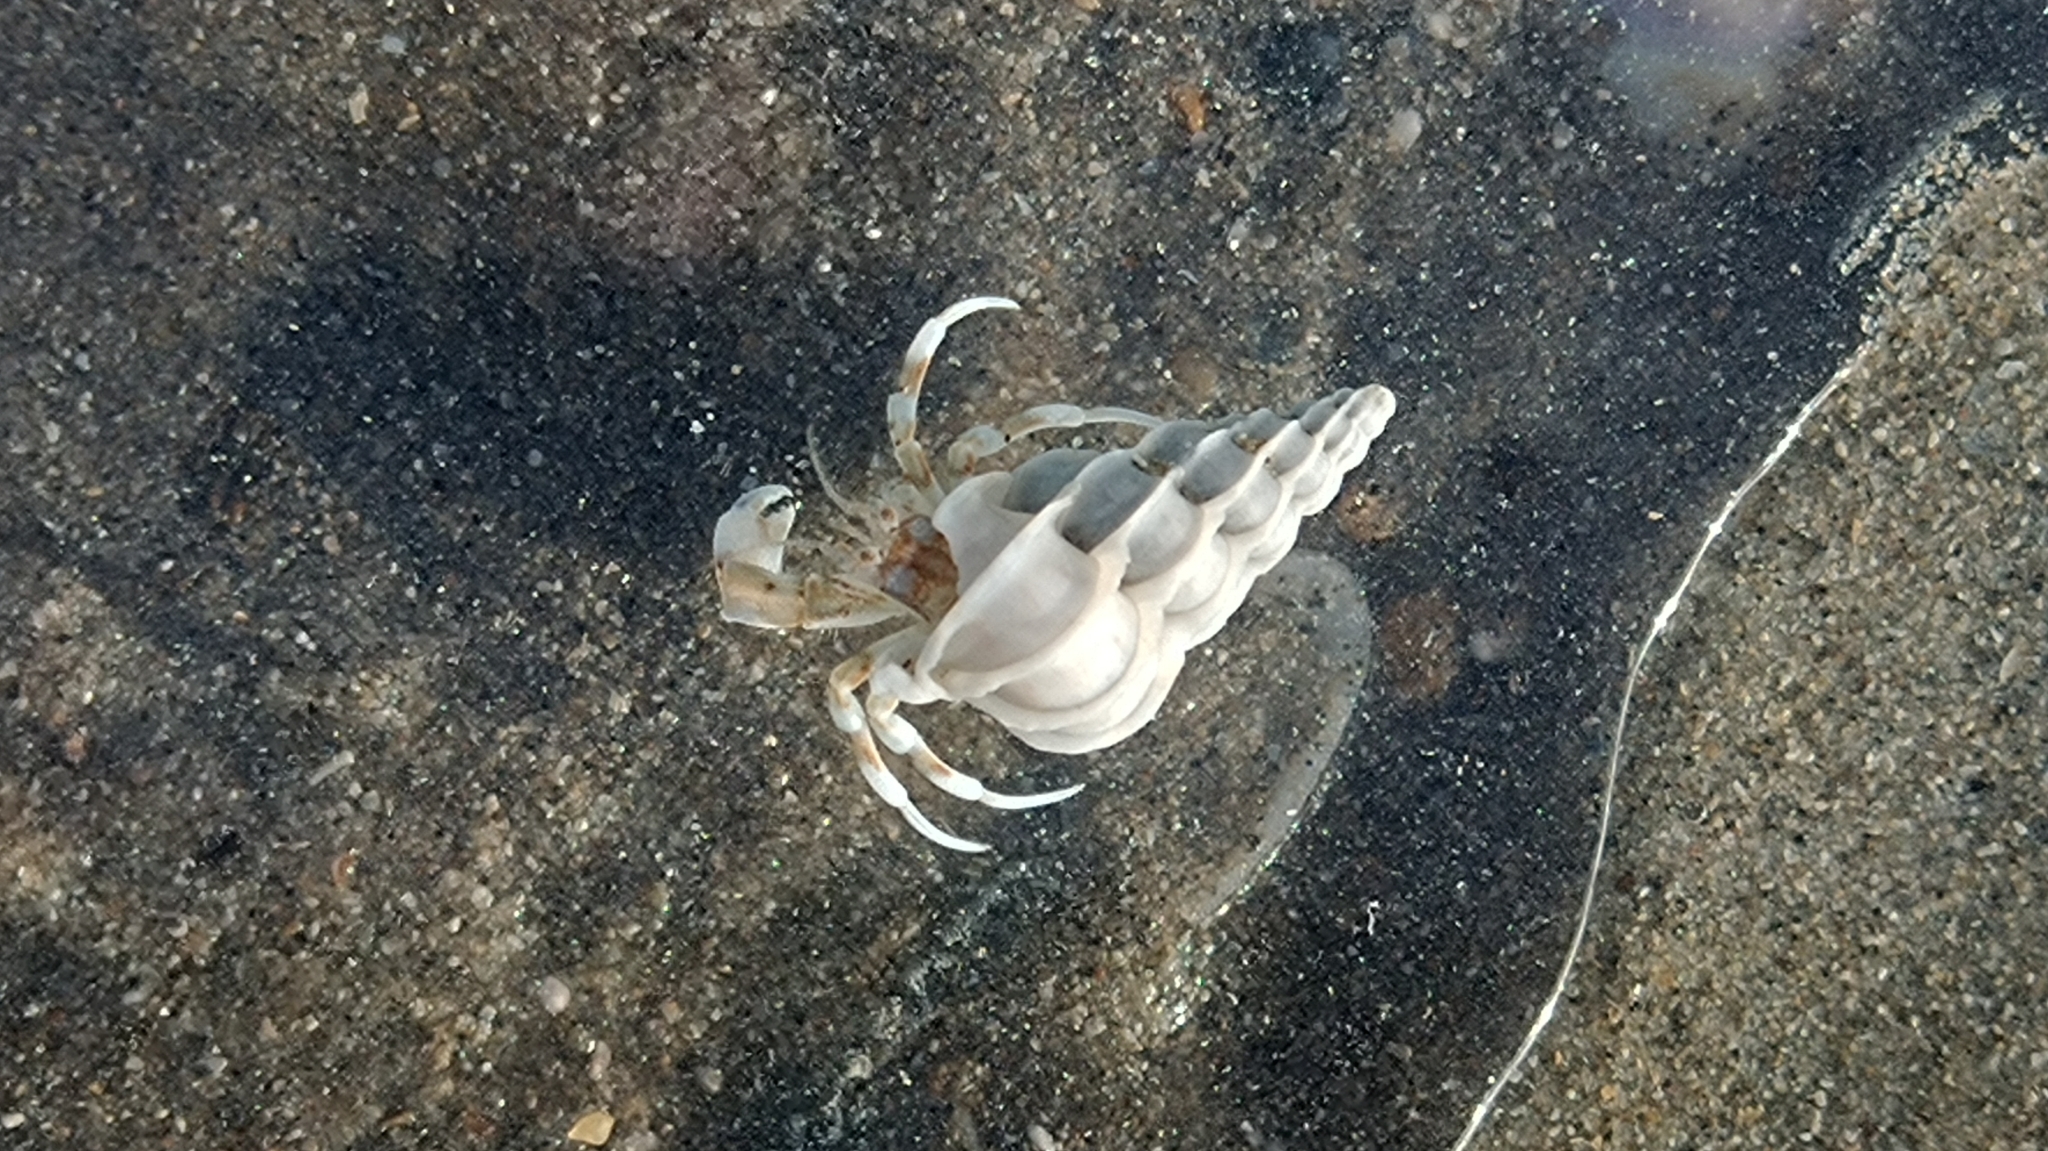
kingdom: Animalia
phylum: Mollusca
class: Gastropoda
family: Epitoniidae
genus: Epitonium
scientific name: Epitonium clathrus
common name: Common wentletrap
